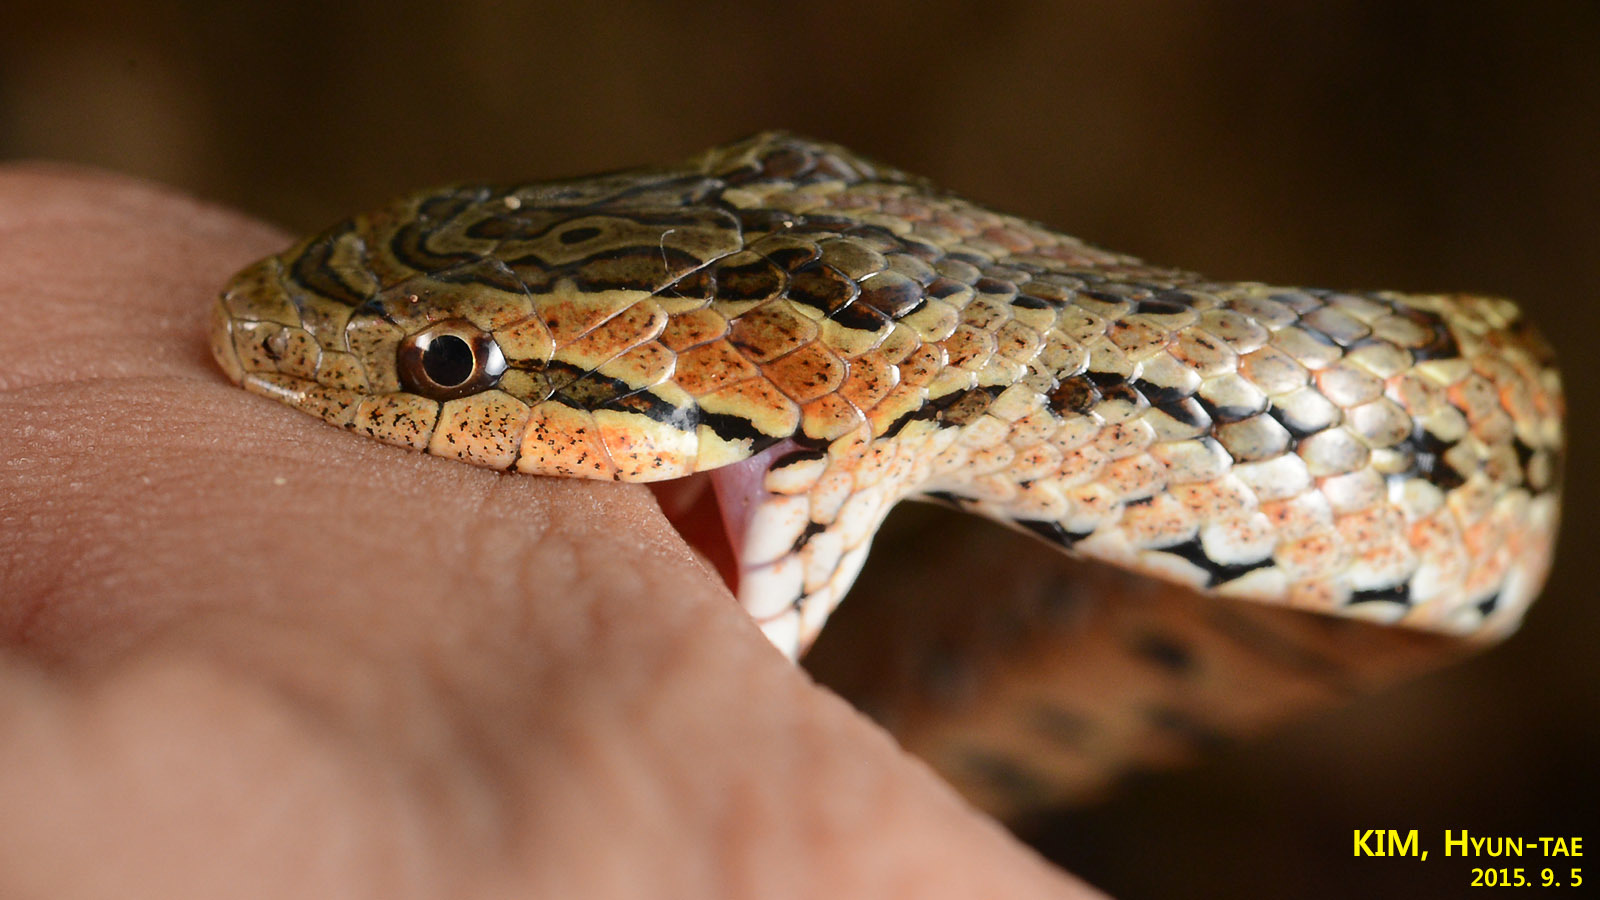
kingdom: Animalia
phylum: Chordata
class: Squamata
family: Colubridae
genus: Oocatochus
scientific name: Oocatochus rufodorsatus
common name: Frog-eating rat snake
